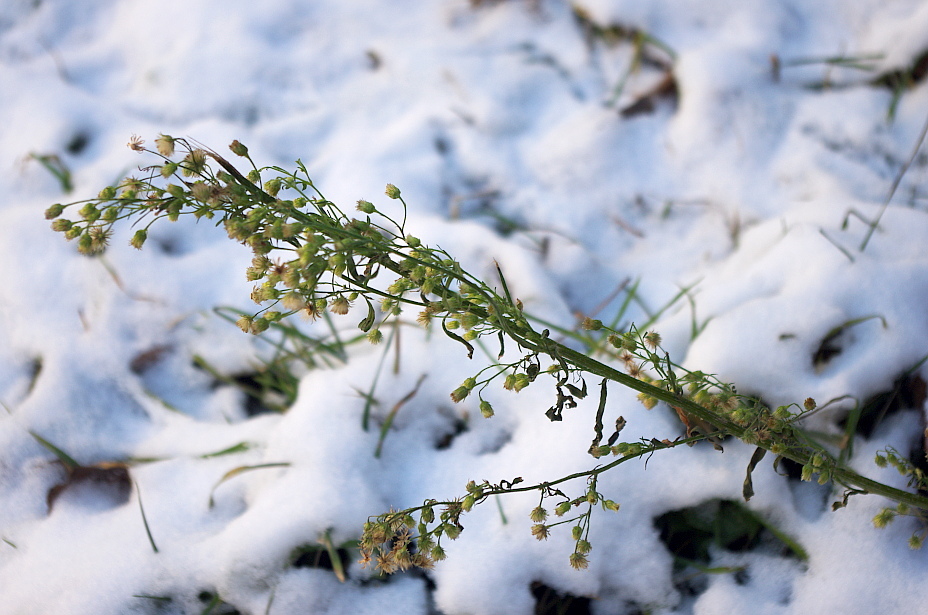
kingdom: Plantae
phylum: Tracheophyta
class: Magnoliopsida
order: Asterales
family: Asteraceae
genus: Erigeron
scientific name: Erigeron canadensis
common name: Canadian fleabane
